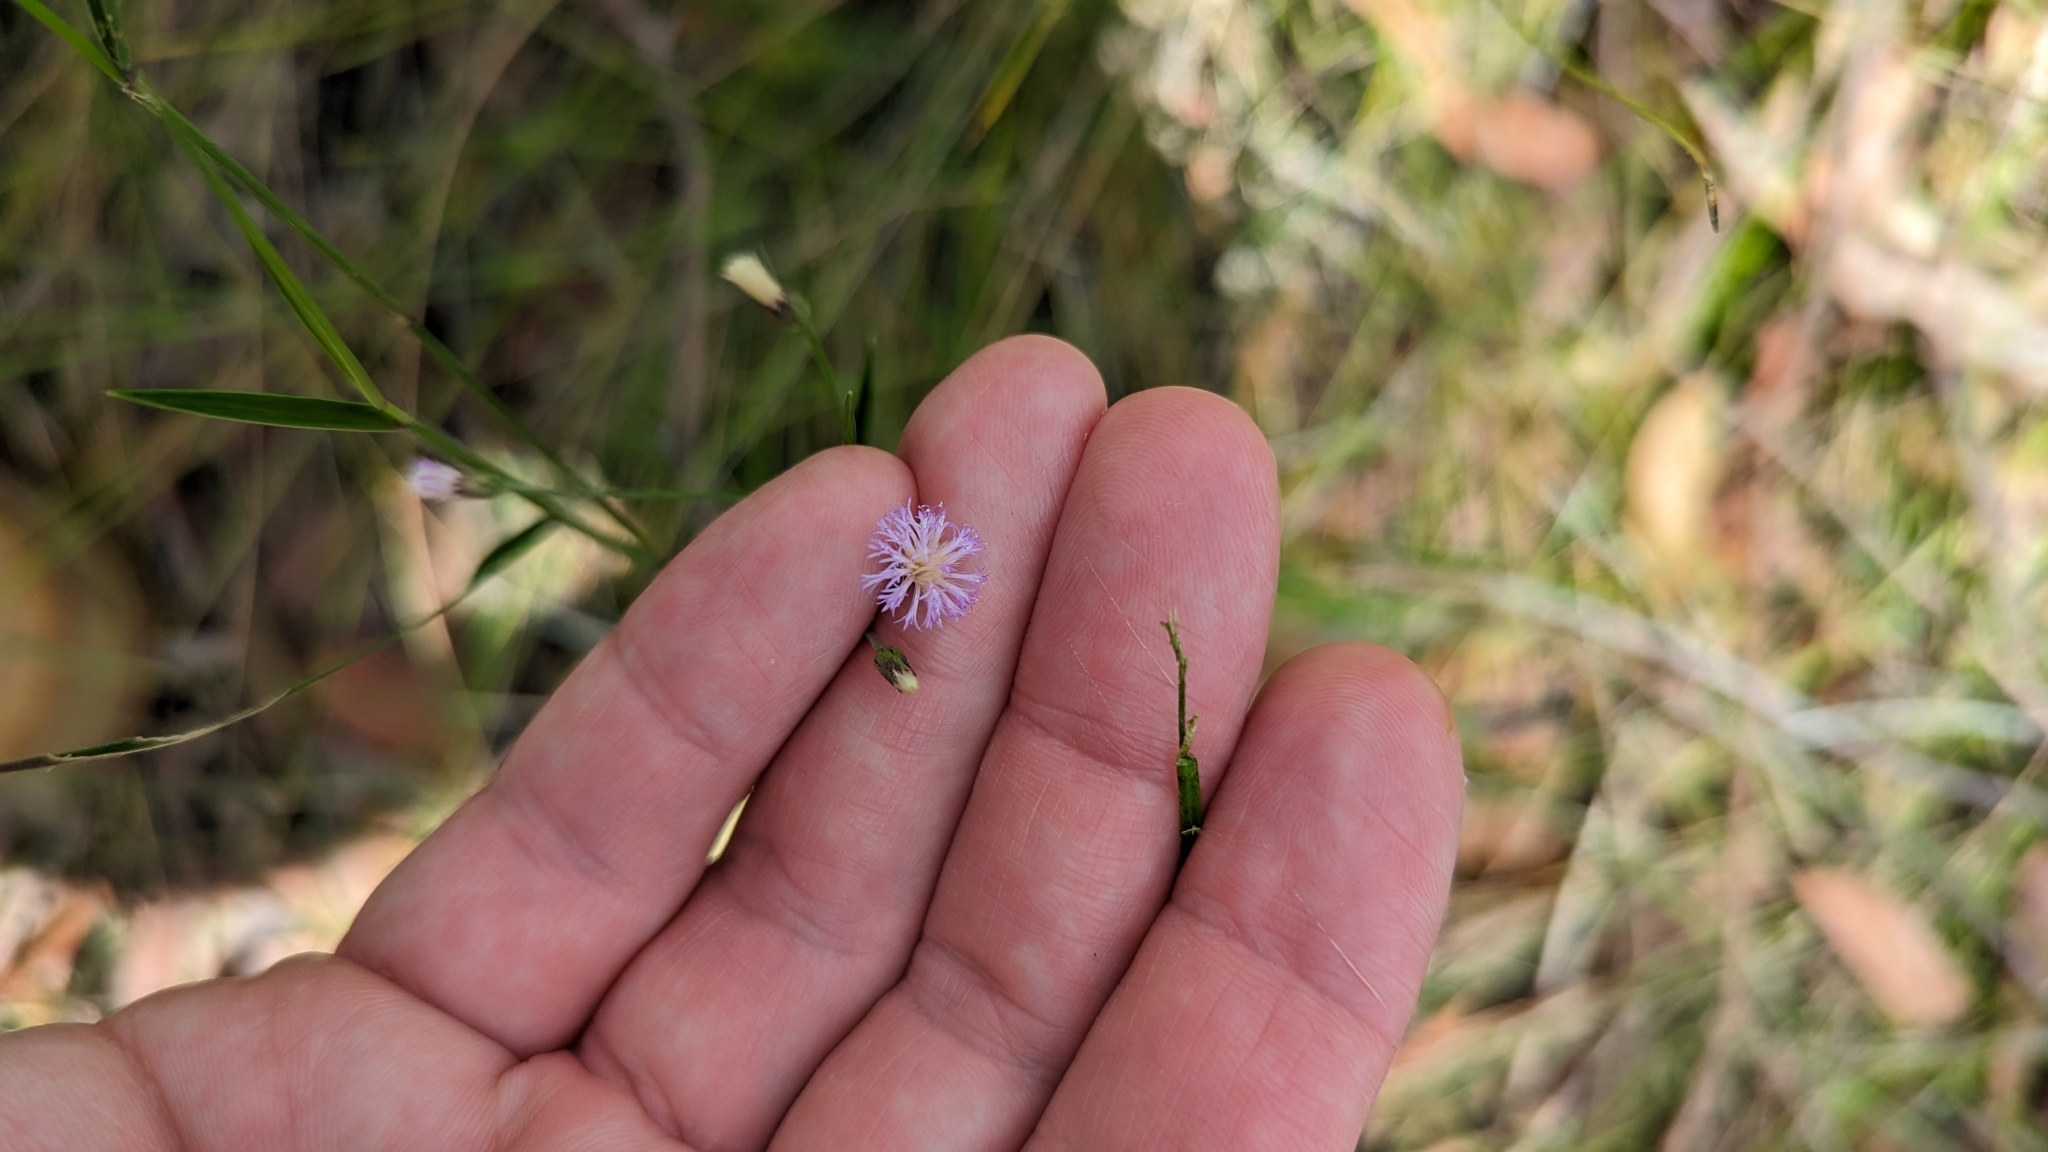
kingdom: Plantae
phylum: Tracheophyta
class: Magnoliopsida
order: Asterales
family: Asteraceae
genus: Cyanthillium
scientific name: Cyanthillium cinereum
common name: Little ironweed
